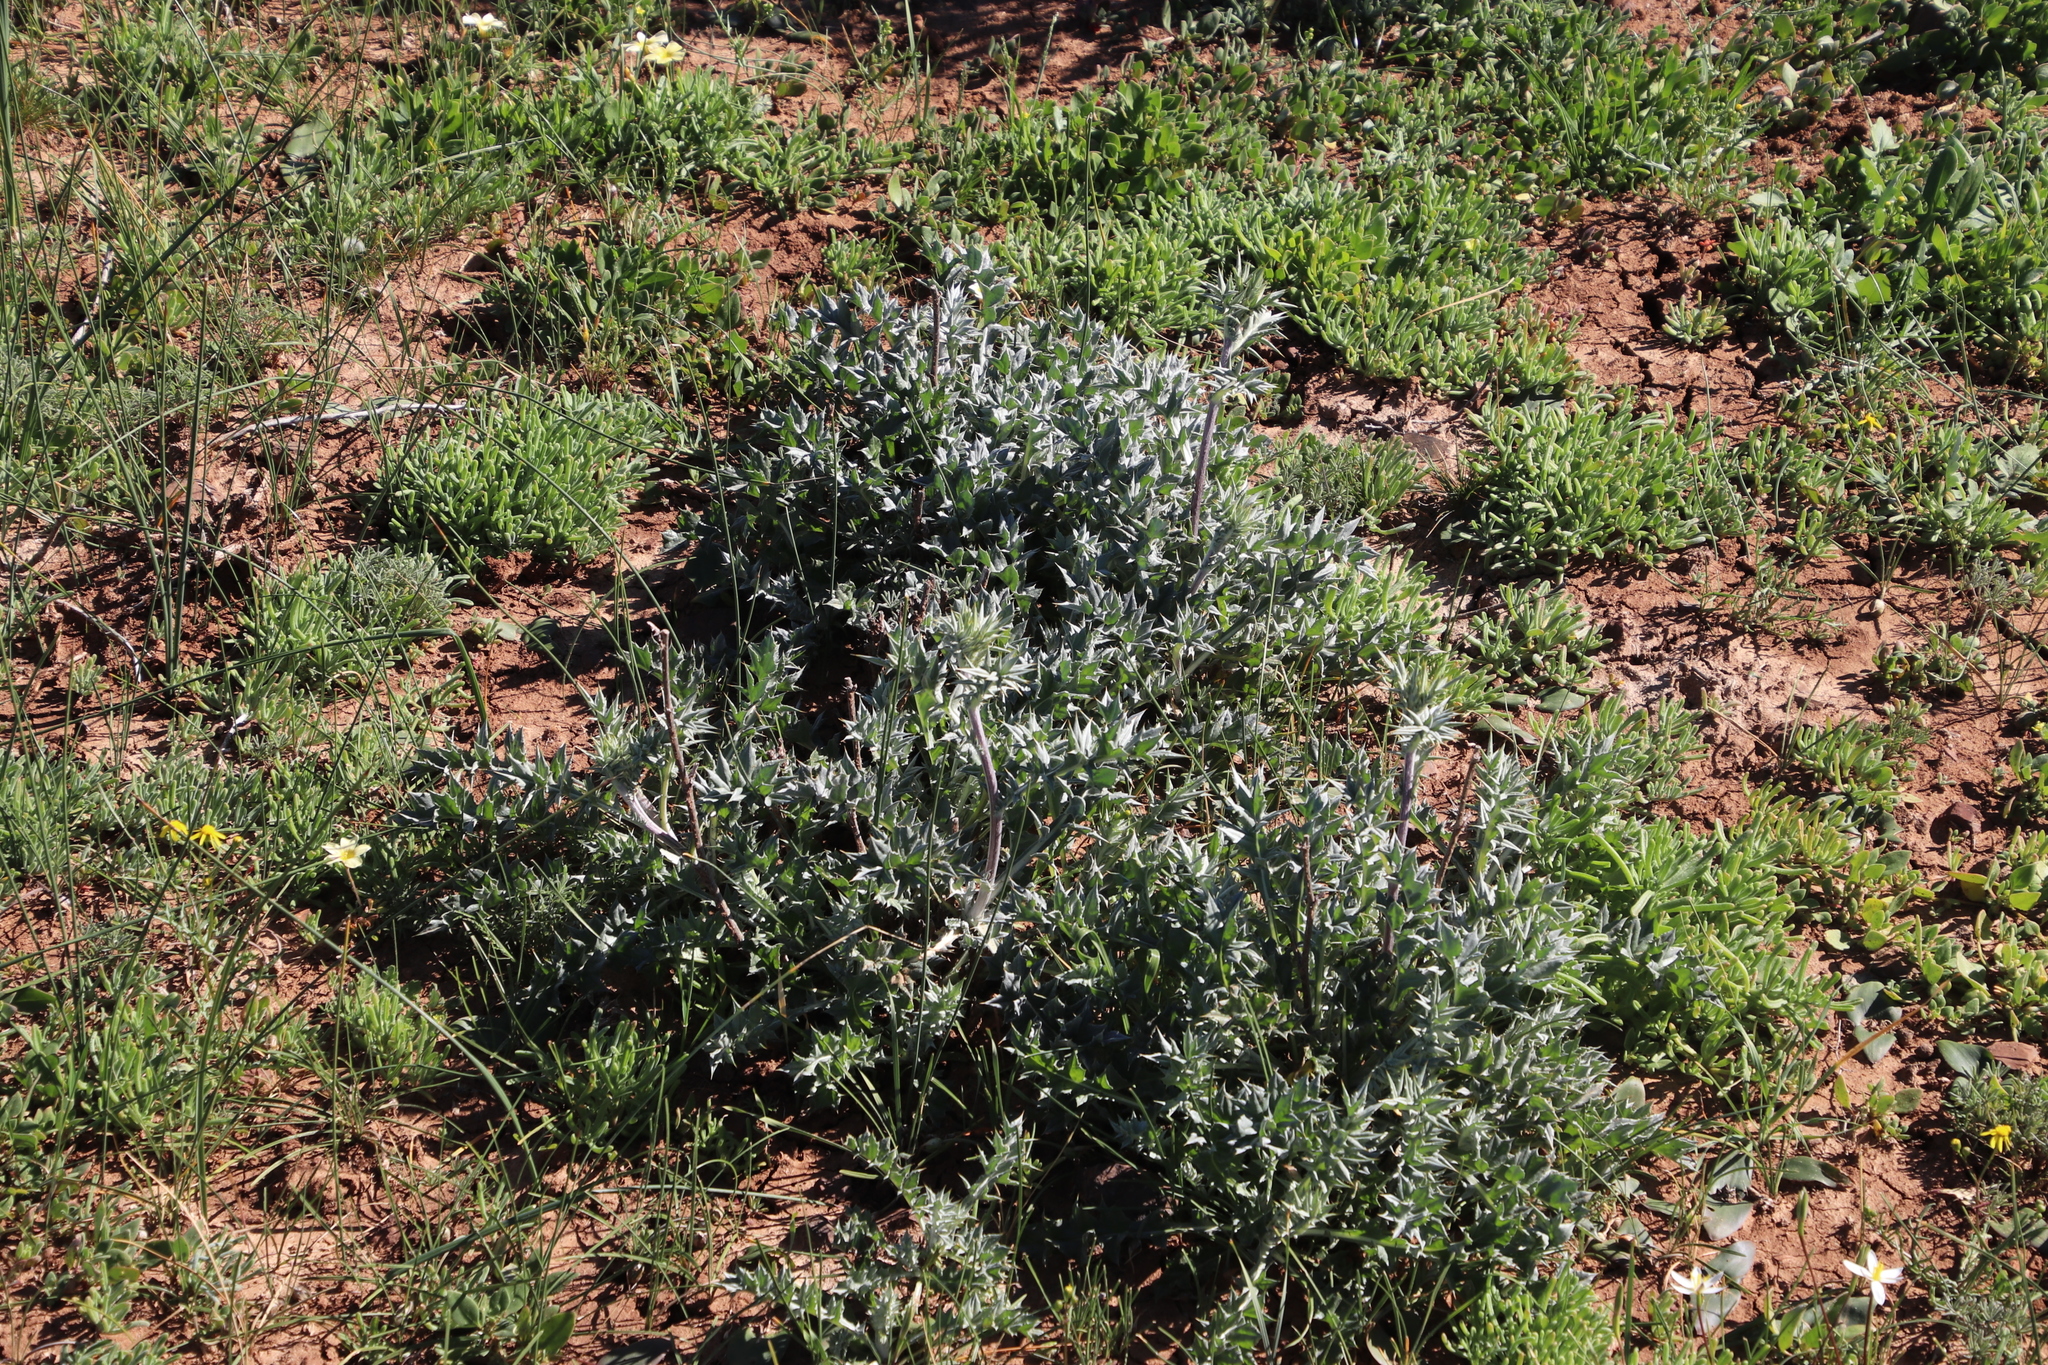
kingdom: Plantae
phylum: Tracheophyta
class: Magnoliopsida
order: Asterales
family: Asteraceae
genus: Berkheya
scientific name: Berkheya pinnatifida
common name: Lobed african thistle
